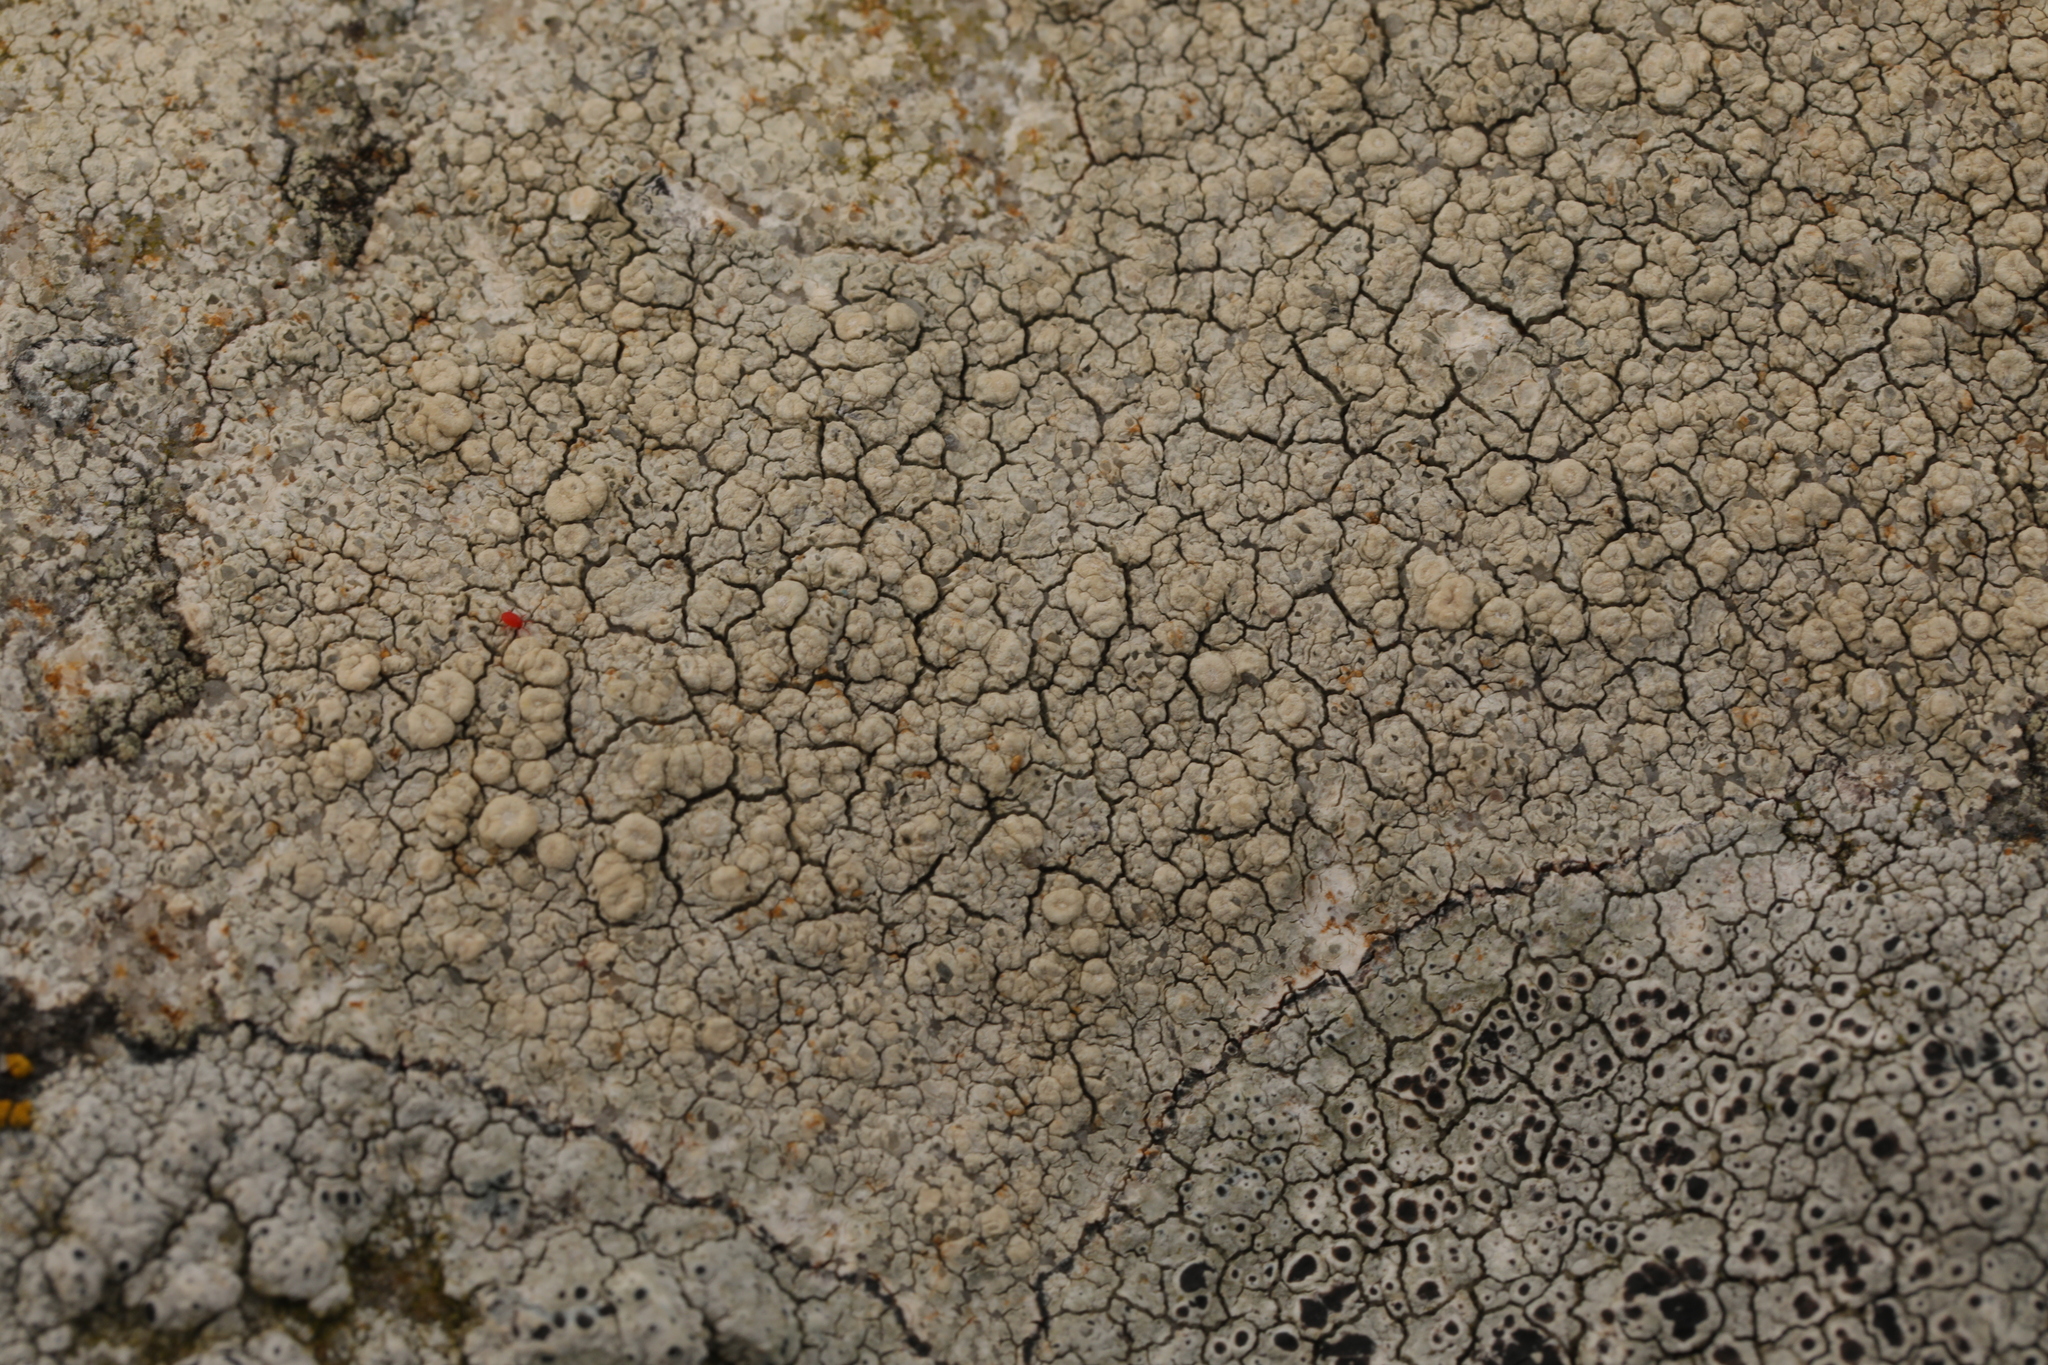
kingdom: Fungi
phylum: Ascomycota
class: Lecanoromycetes
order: Pertusariales
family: Ochrolechiaceae
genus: Ochrolechia
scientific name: Ochrolechia parella
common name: Crab's eye lichen
